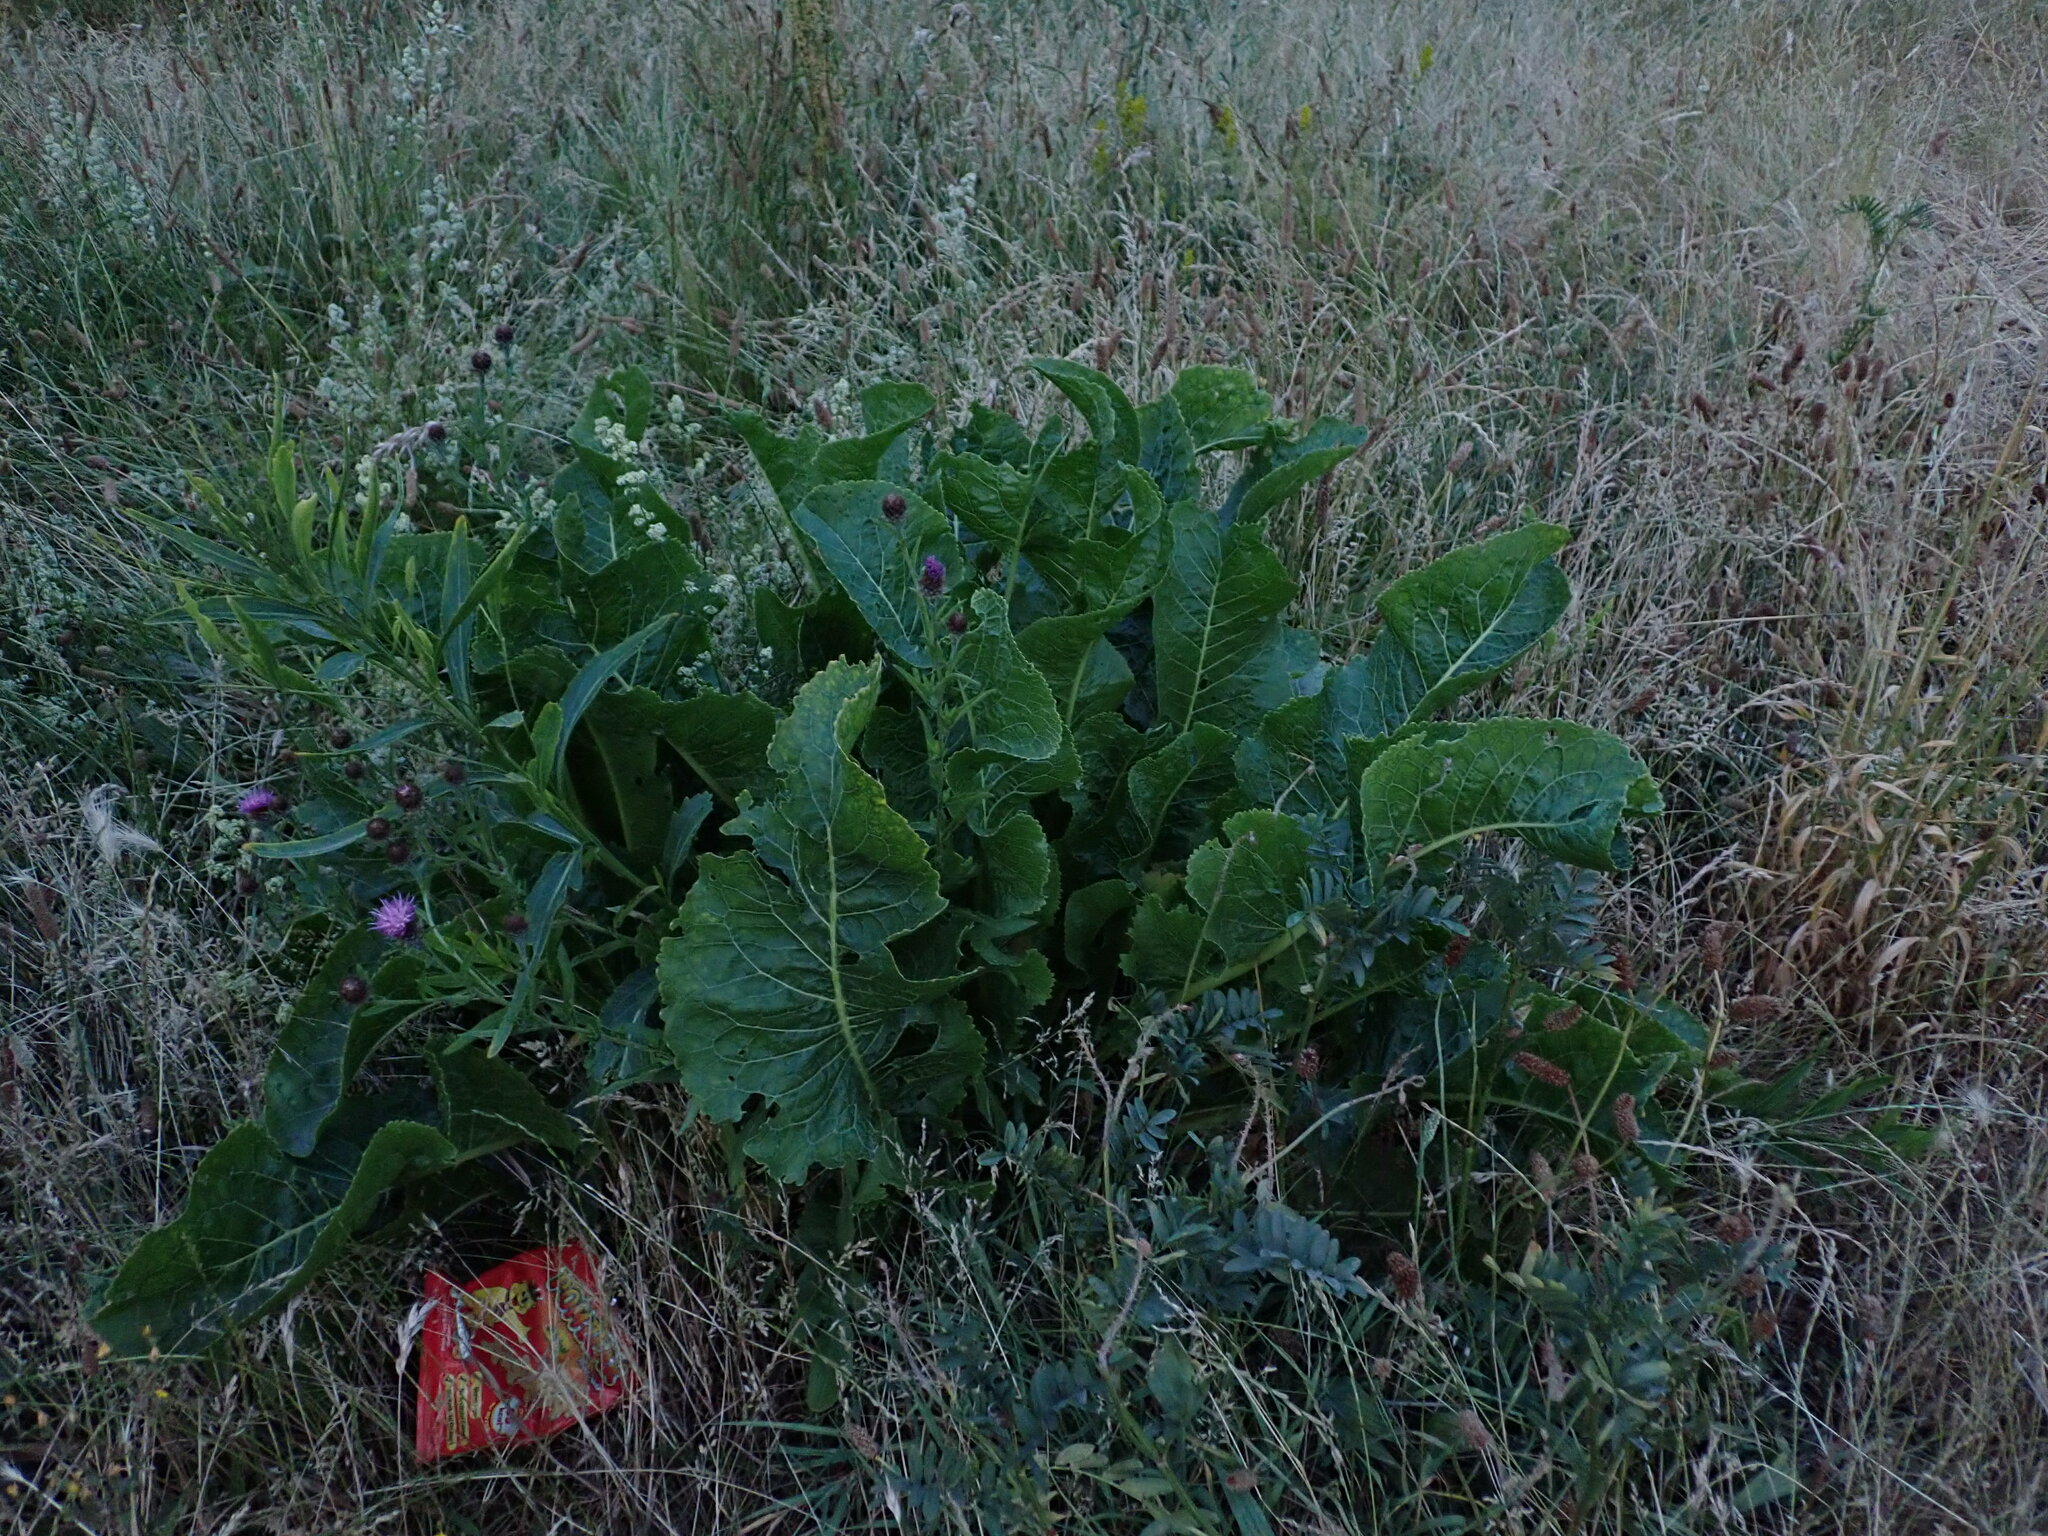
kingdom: Plantae
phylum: Tracheophyta
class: Magnoliopsida
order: Brassicales
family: Brassicaceae
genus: Armoracia
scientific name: Armoracia rusticana
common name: Horseradish
